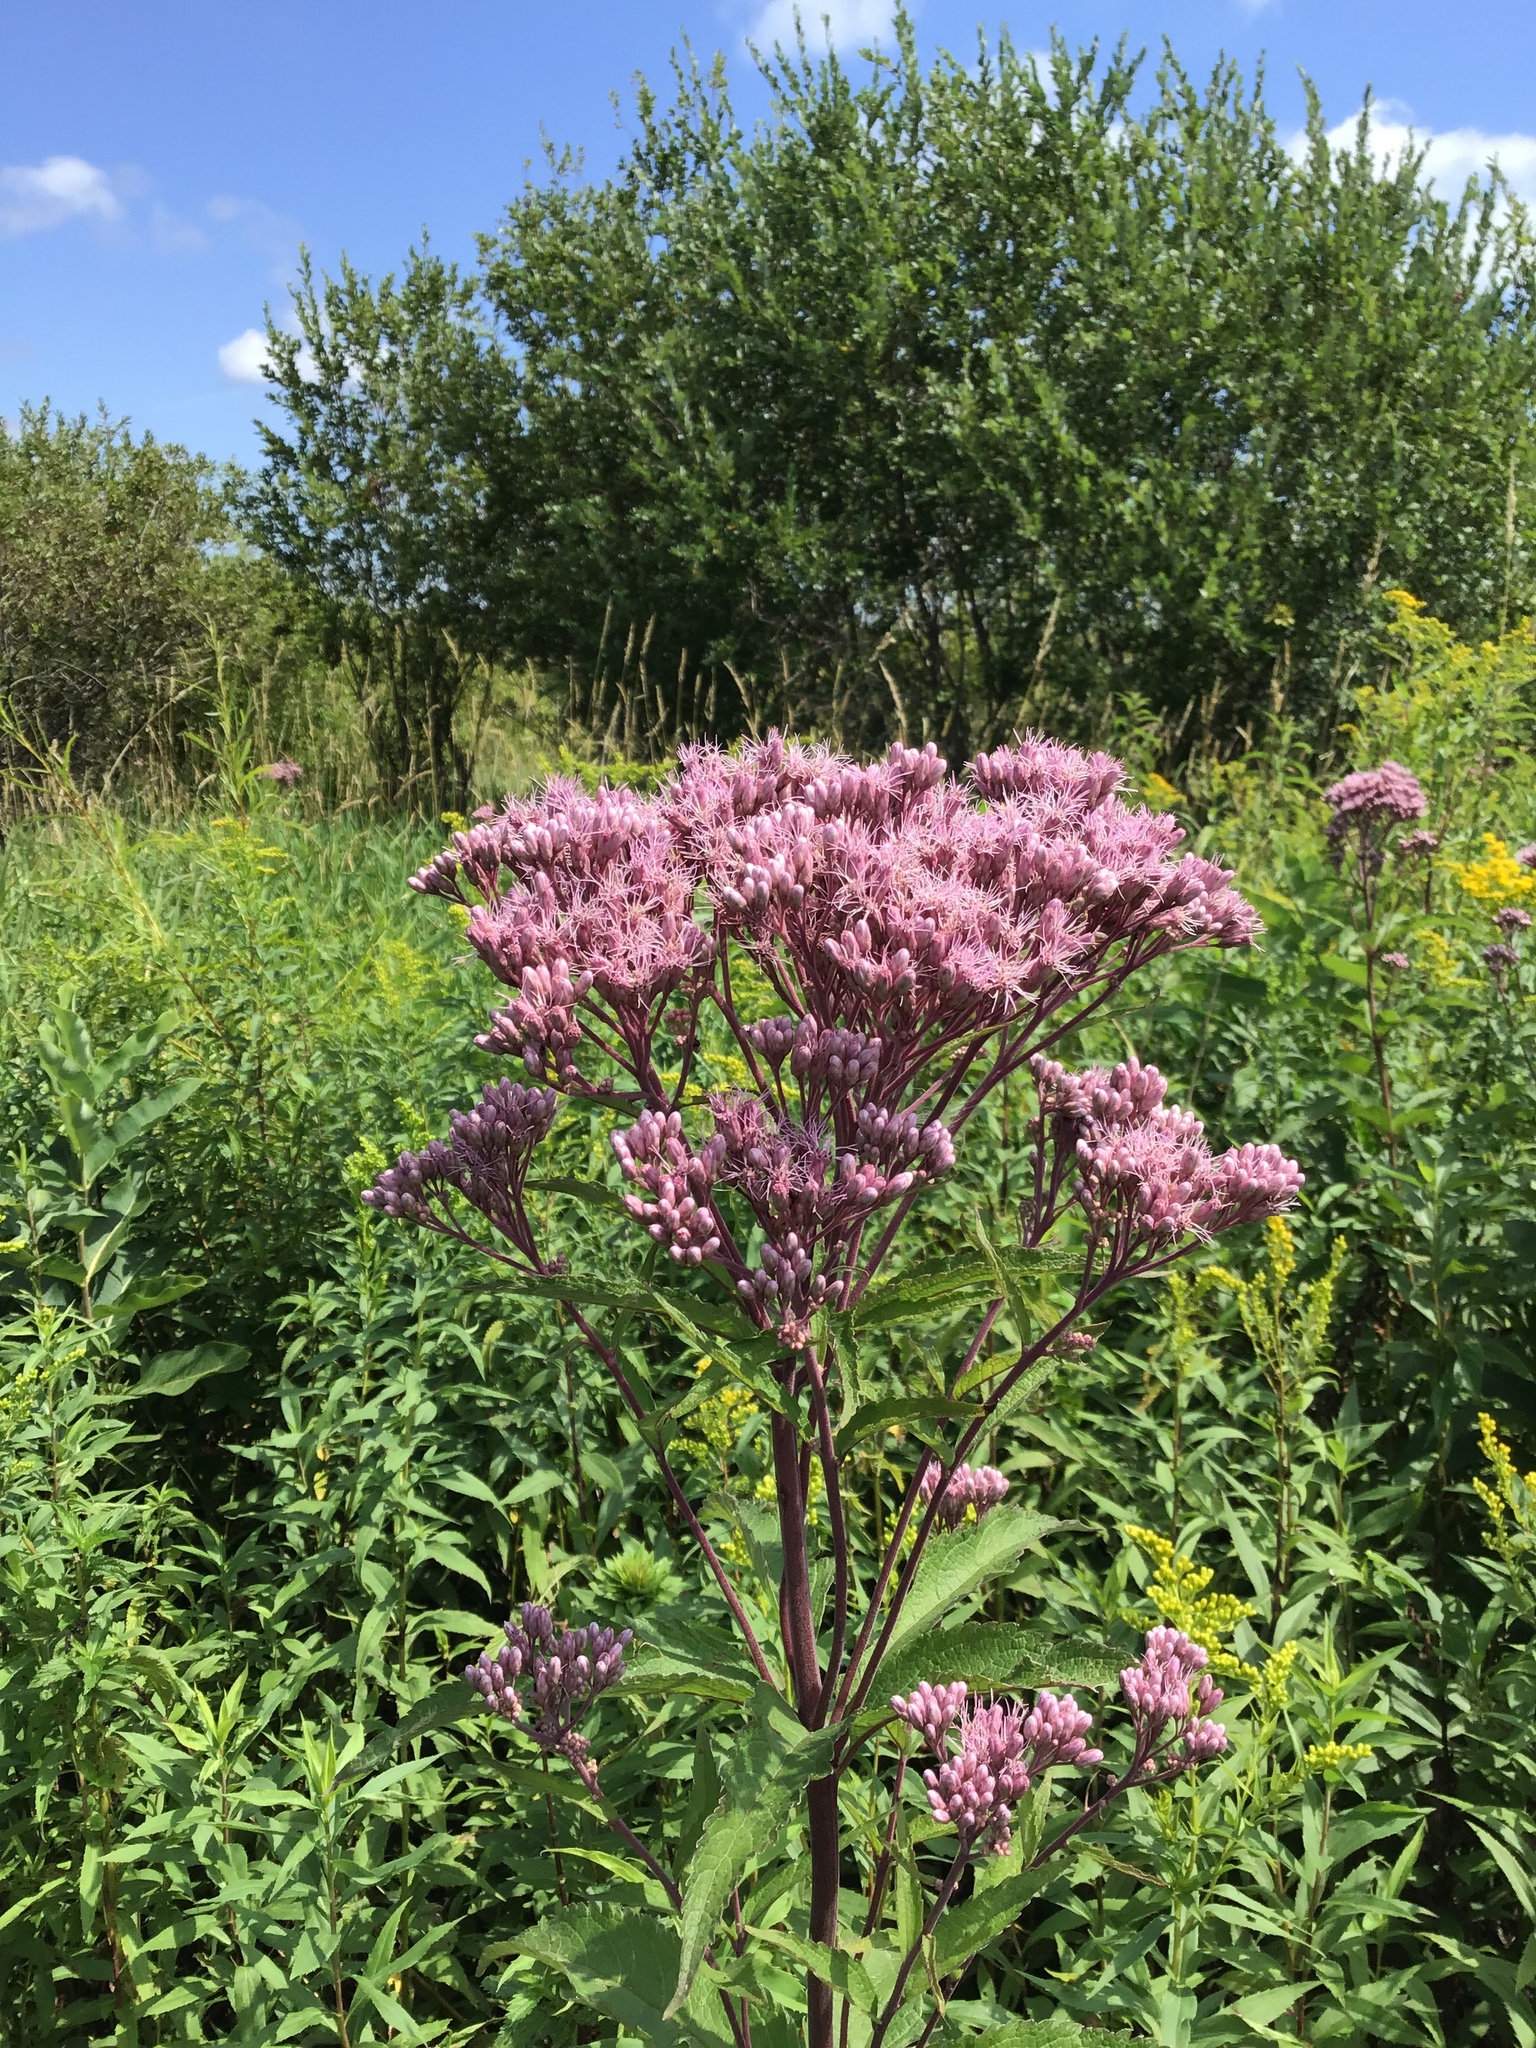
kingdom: Plantae
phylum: Tracheophyta
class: Magnoliopsida
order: Asterales
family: Asteraceae
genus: Eutrochium
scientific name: Eutrochium maculatum
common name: Spotted joe pye weed
